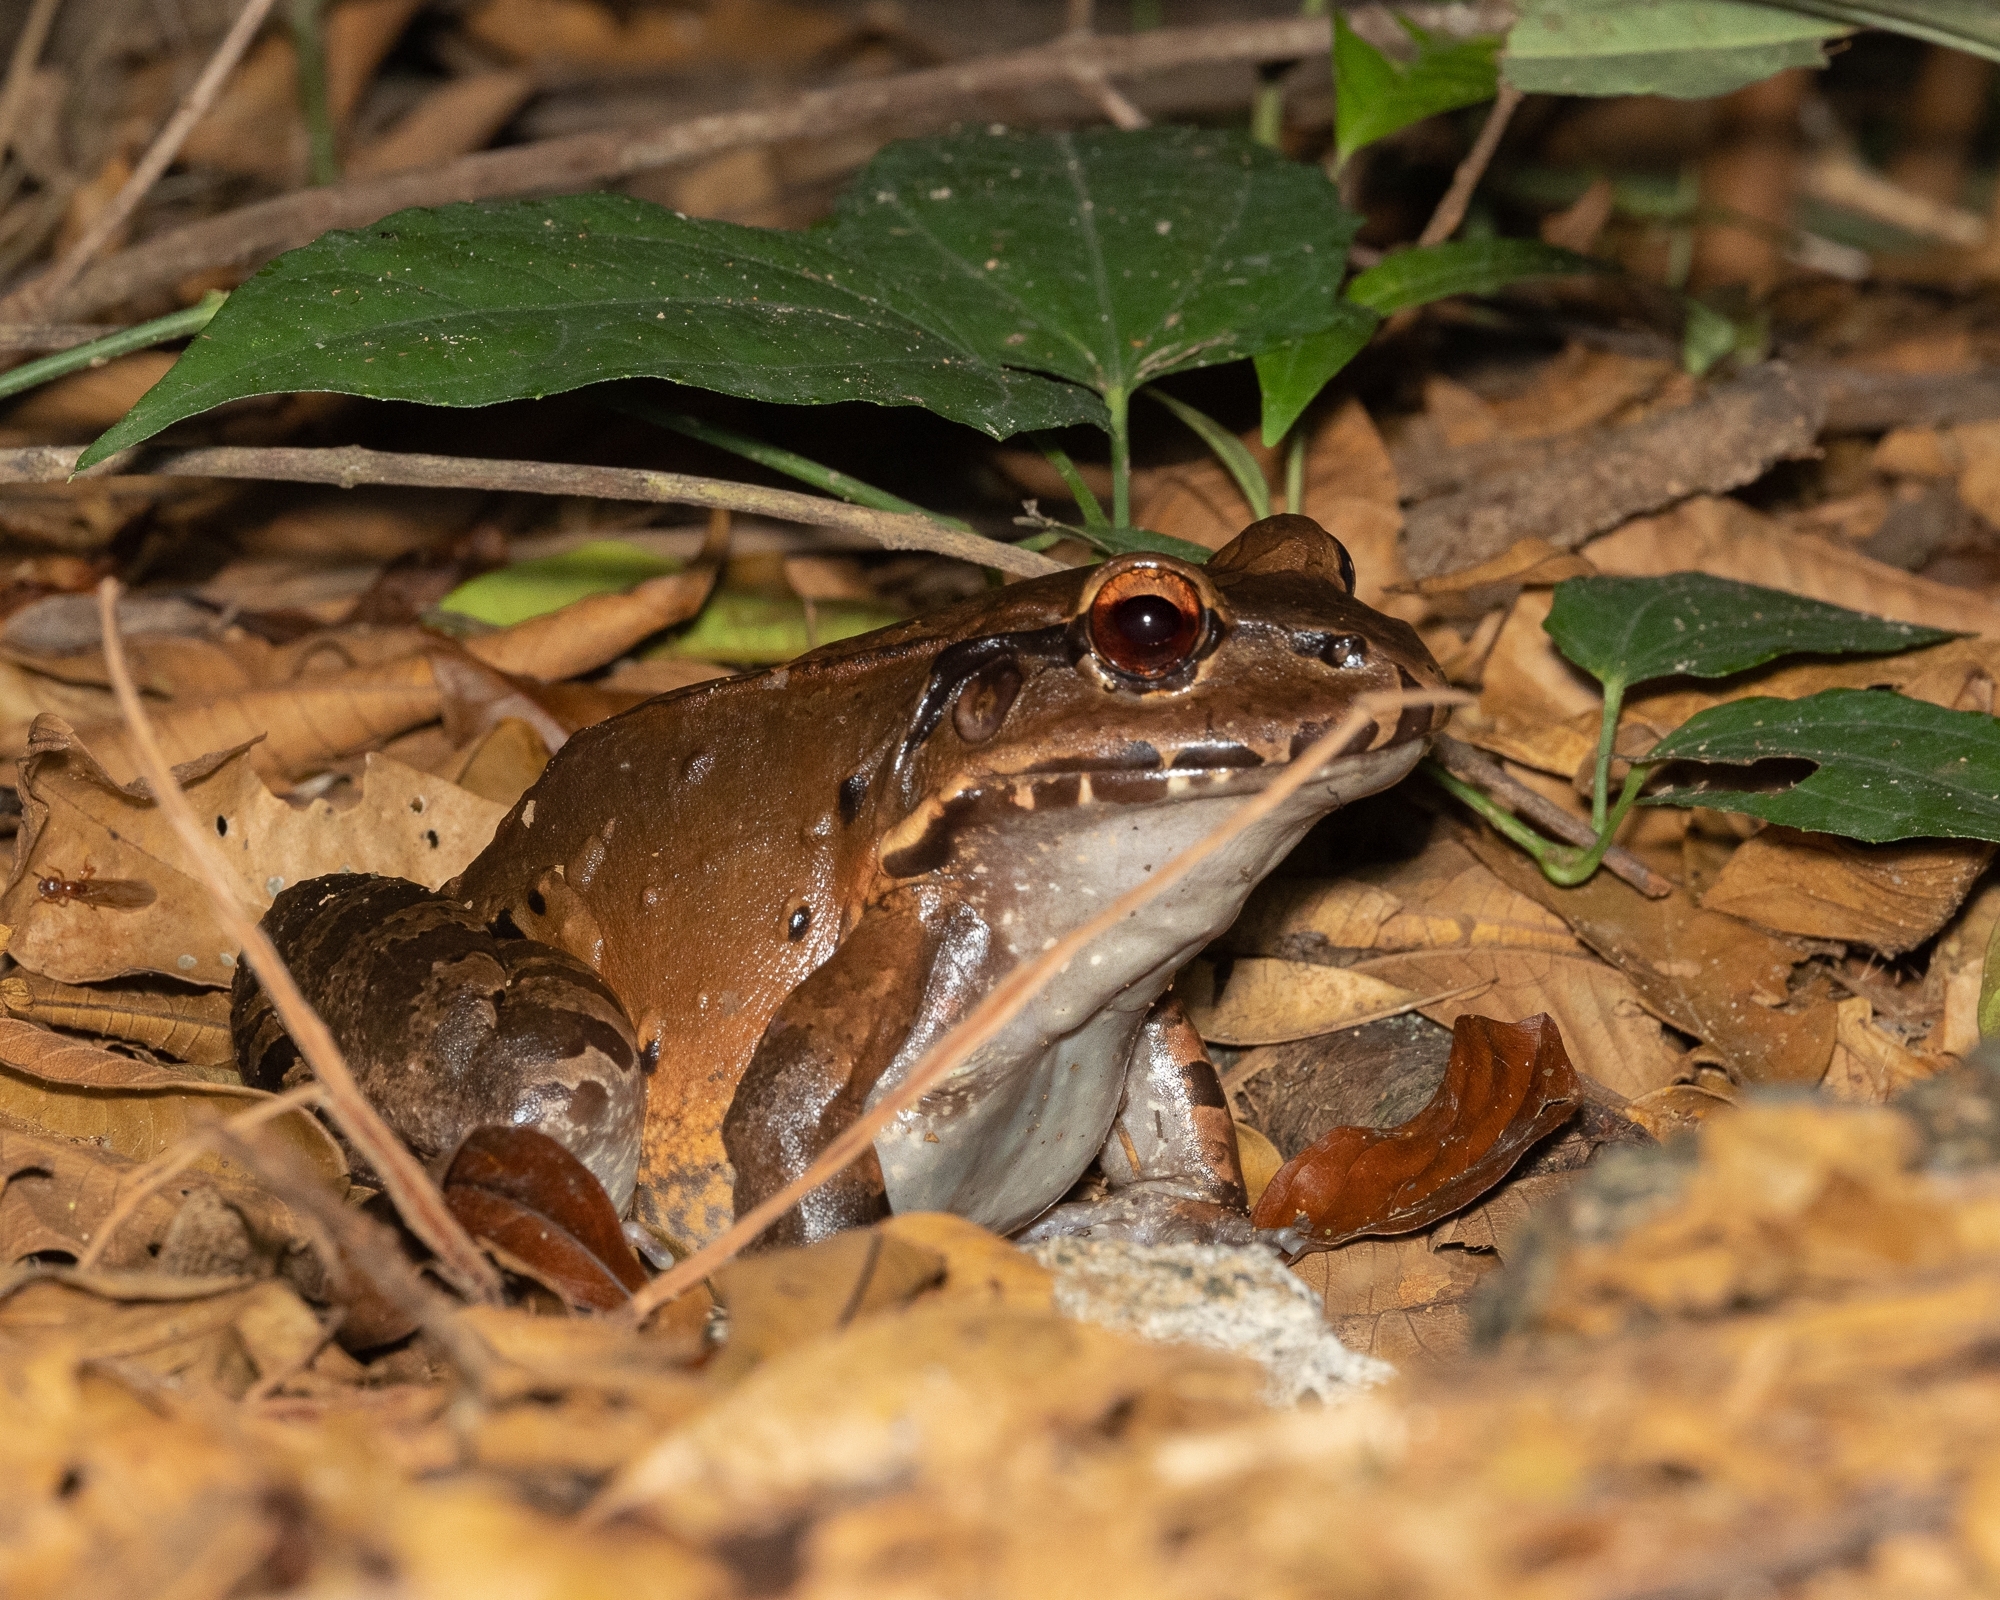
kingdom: Animalia
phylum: Chordata
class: Amphibia
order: Anura
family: Leptodactylidae
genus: Leptodactylus
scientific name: Leptodactylus savagei
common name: Savage's thin-toed frog
